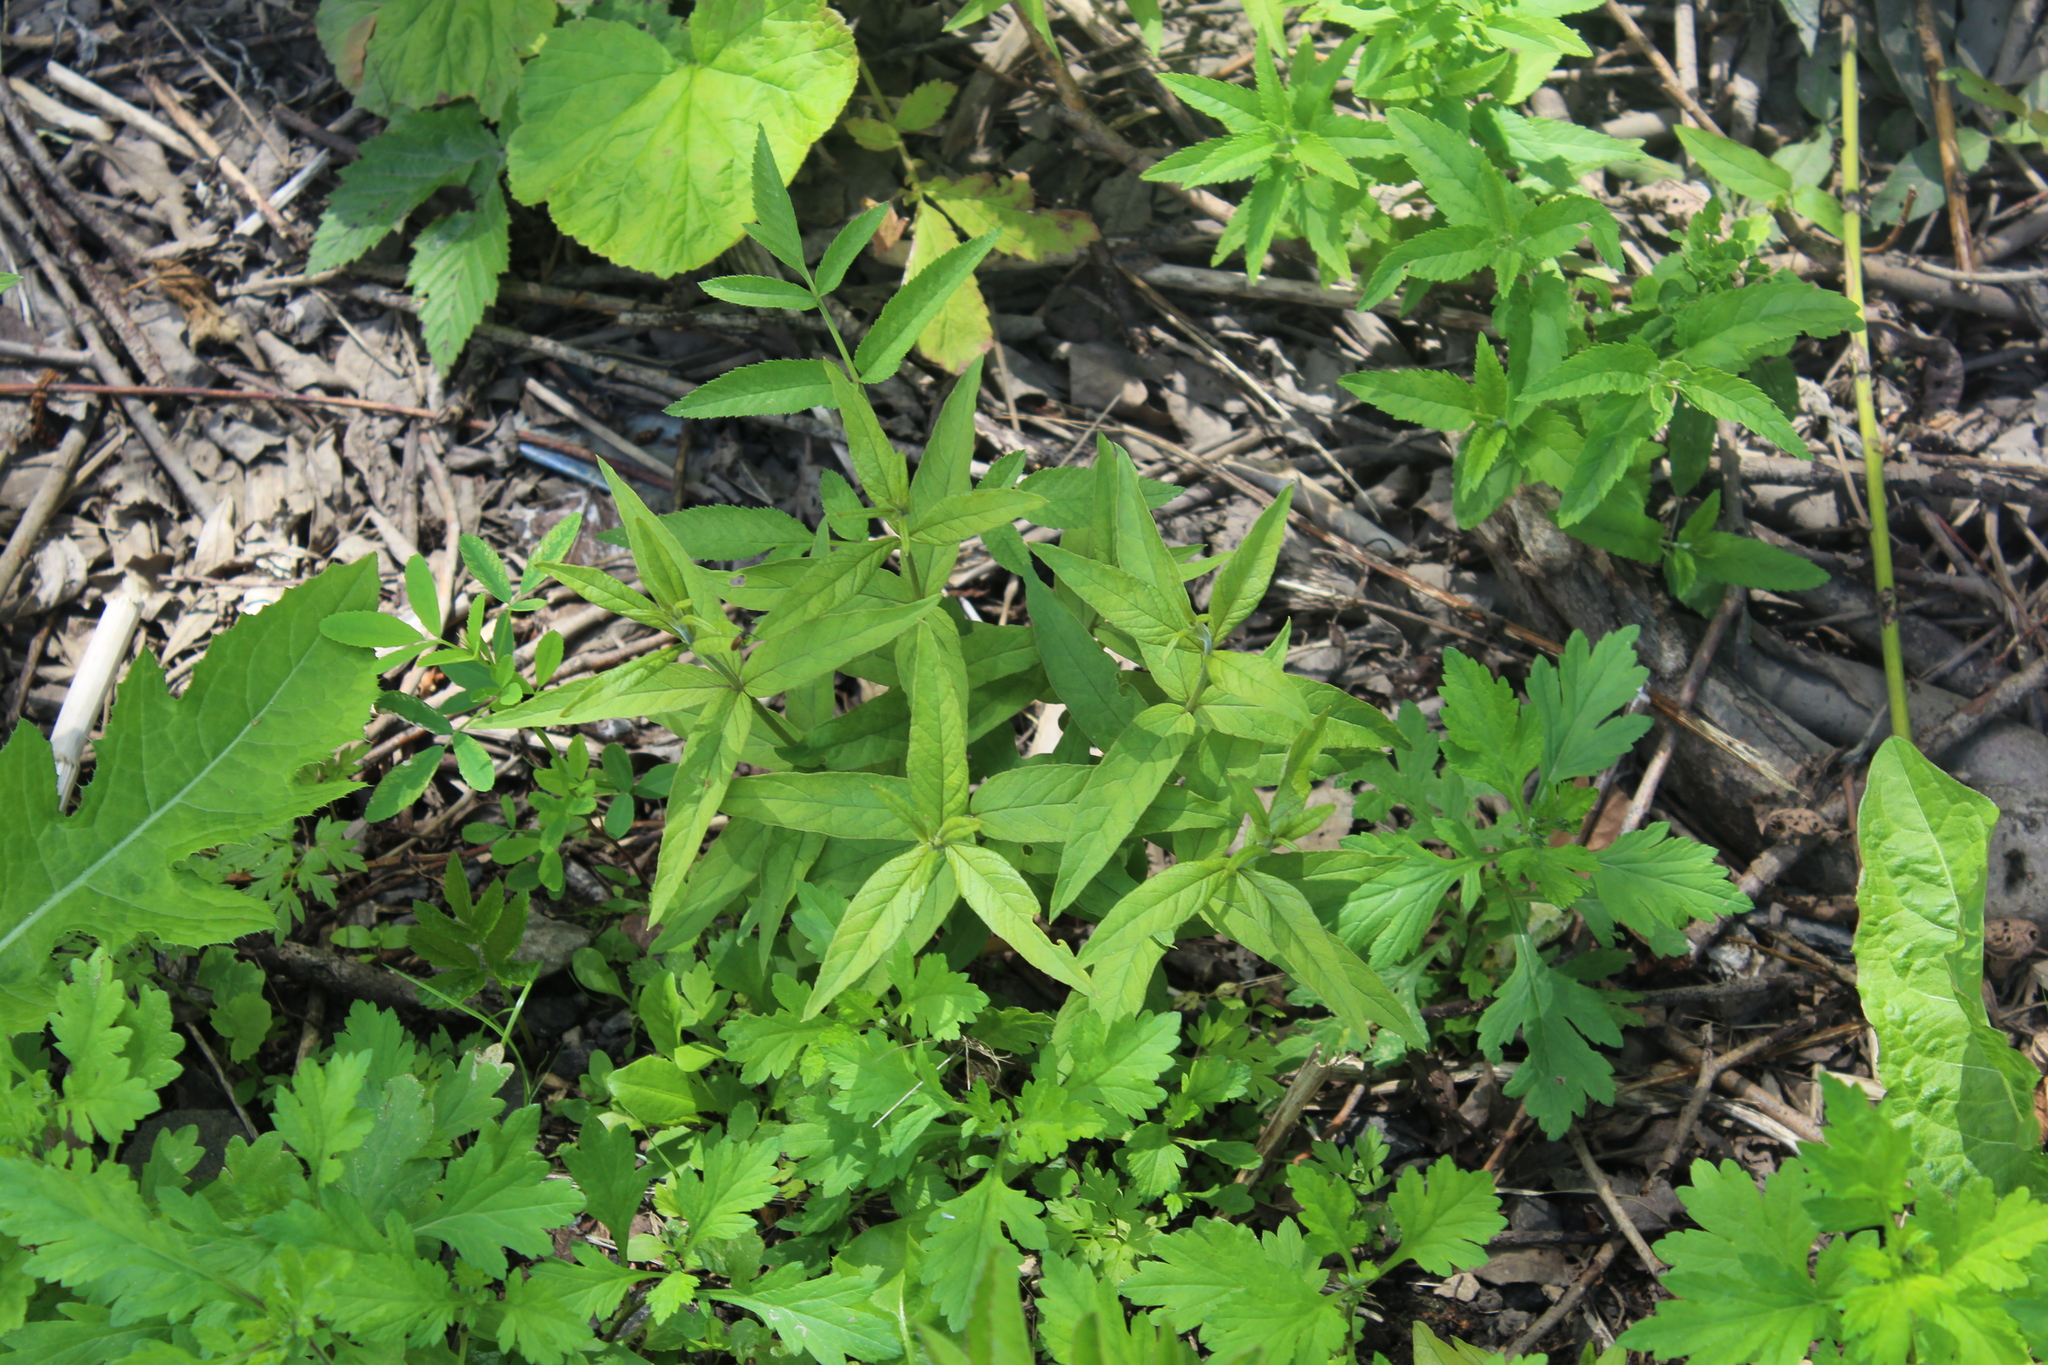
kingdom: Plantae
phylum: Tracheophyta
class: Magnoliopsida
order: Ericales
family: Primulaceae
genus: Lysimachia
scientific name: Lysimachia vulgaris
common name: Yellow loosestrife
